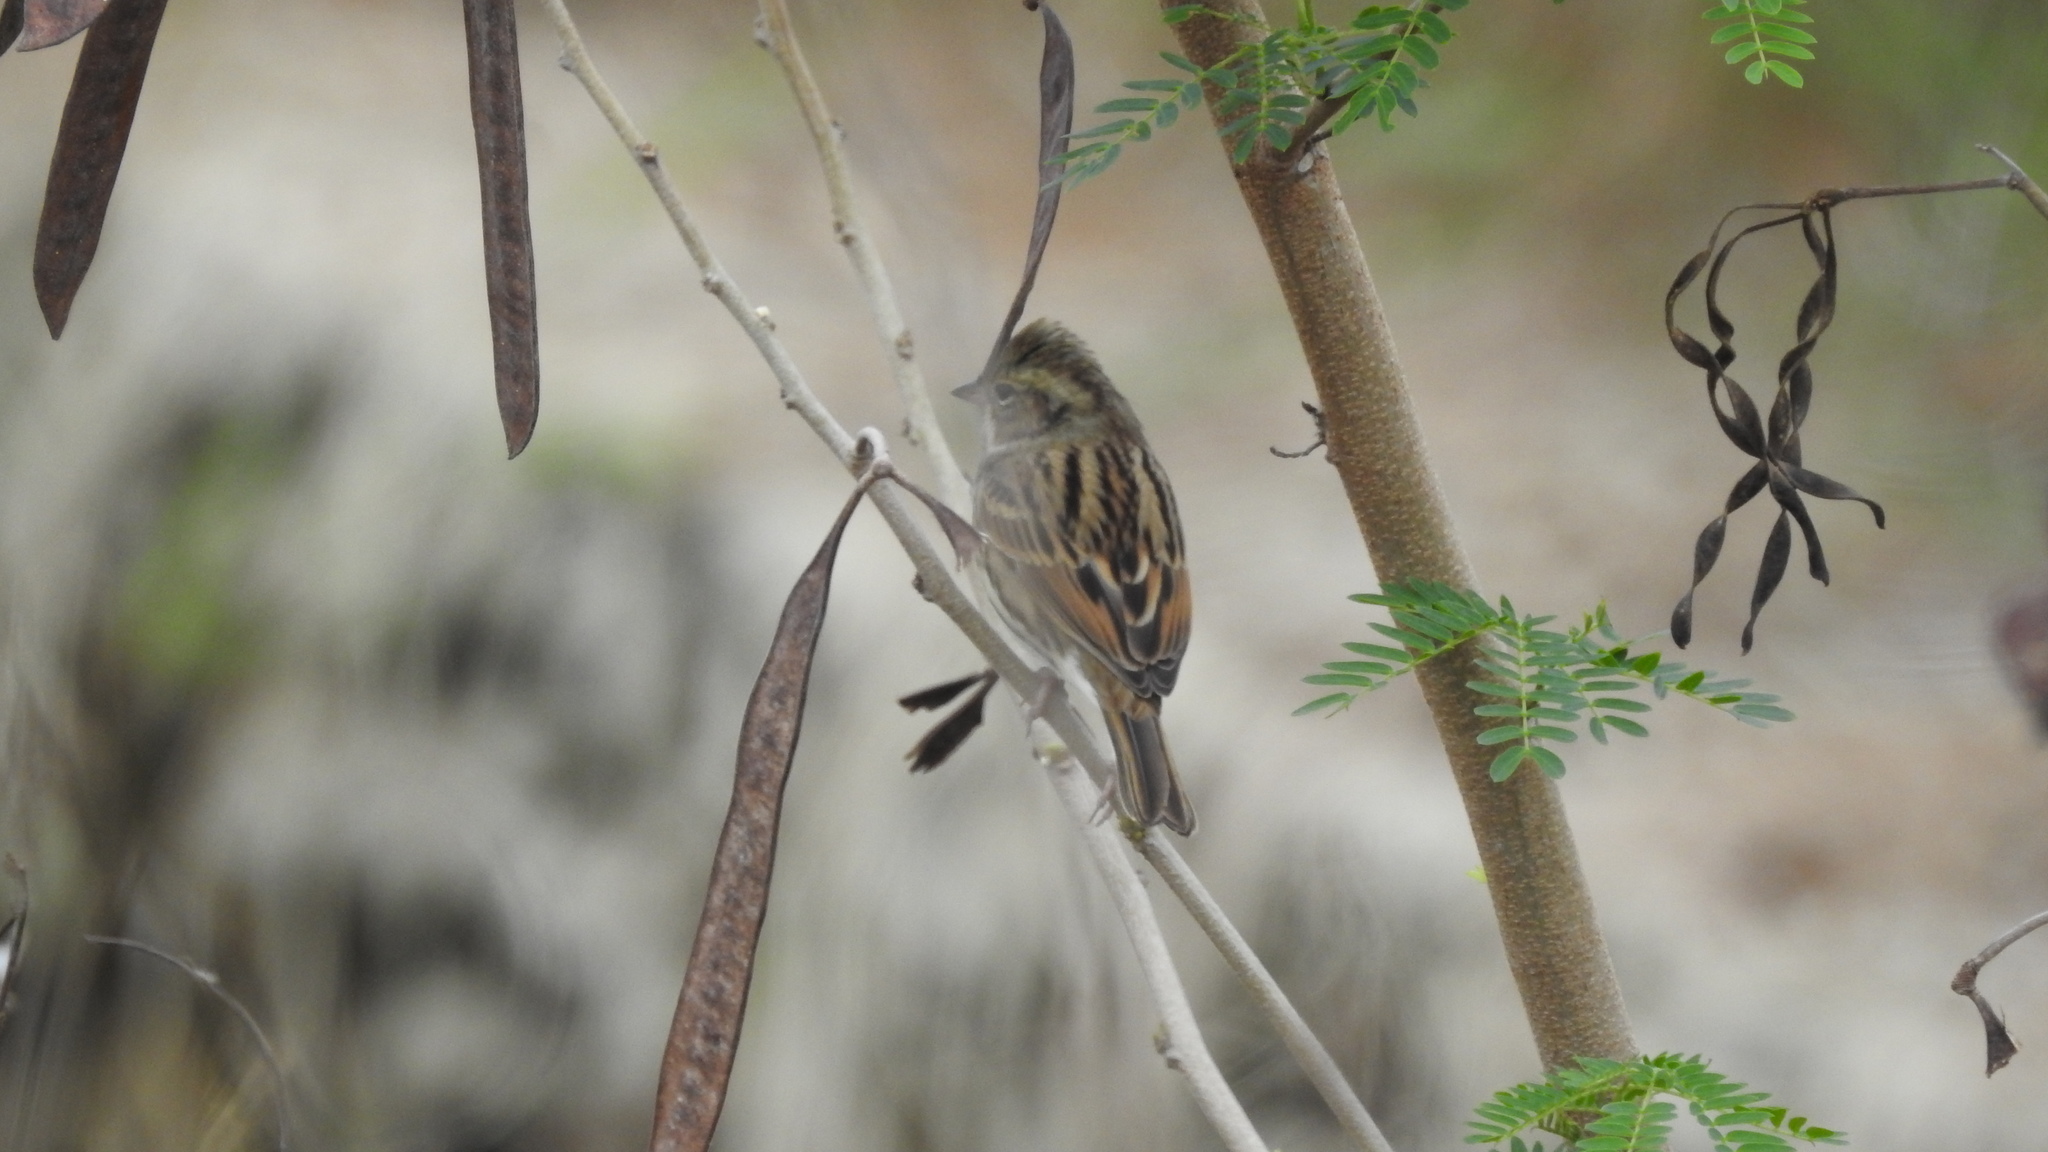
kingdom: Animalia
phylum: Chordata
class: Aves
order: Passeriformes
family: Emberizidae
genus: Emberiza
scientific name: Emberiza spodocephala
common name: Black-faced bunting
